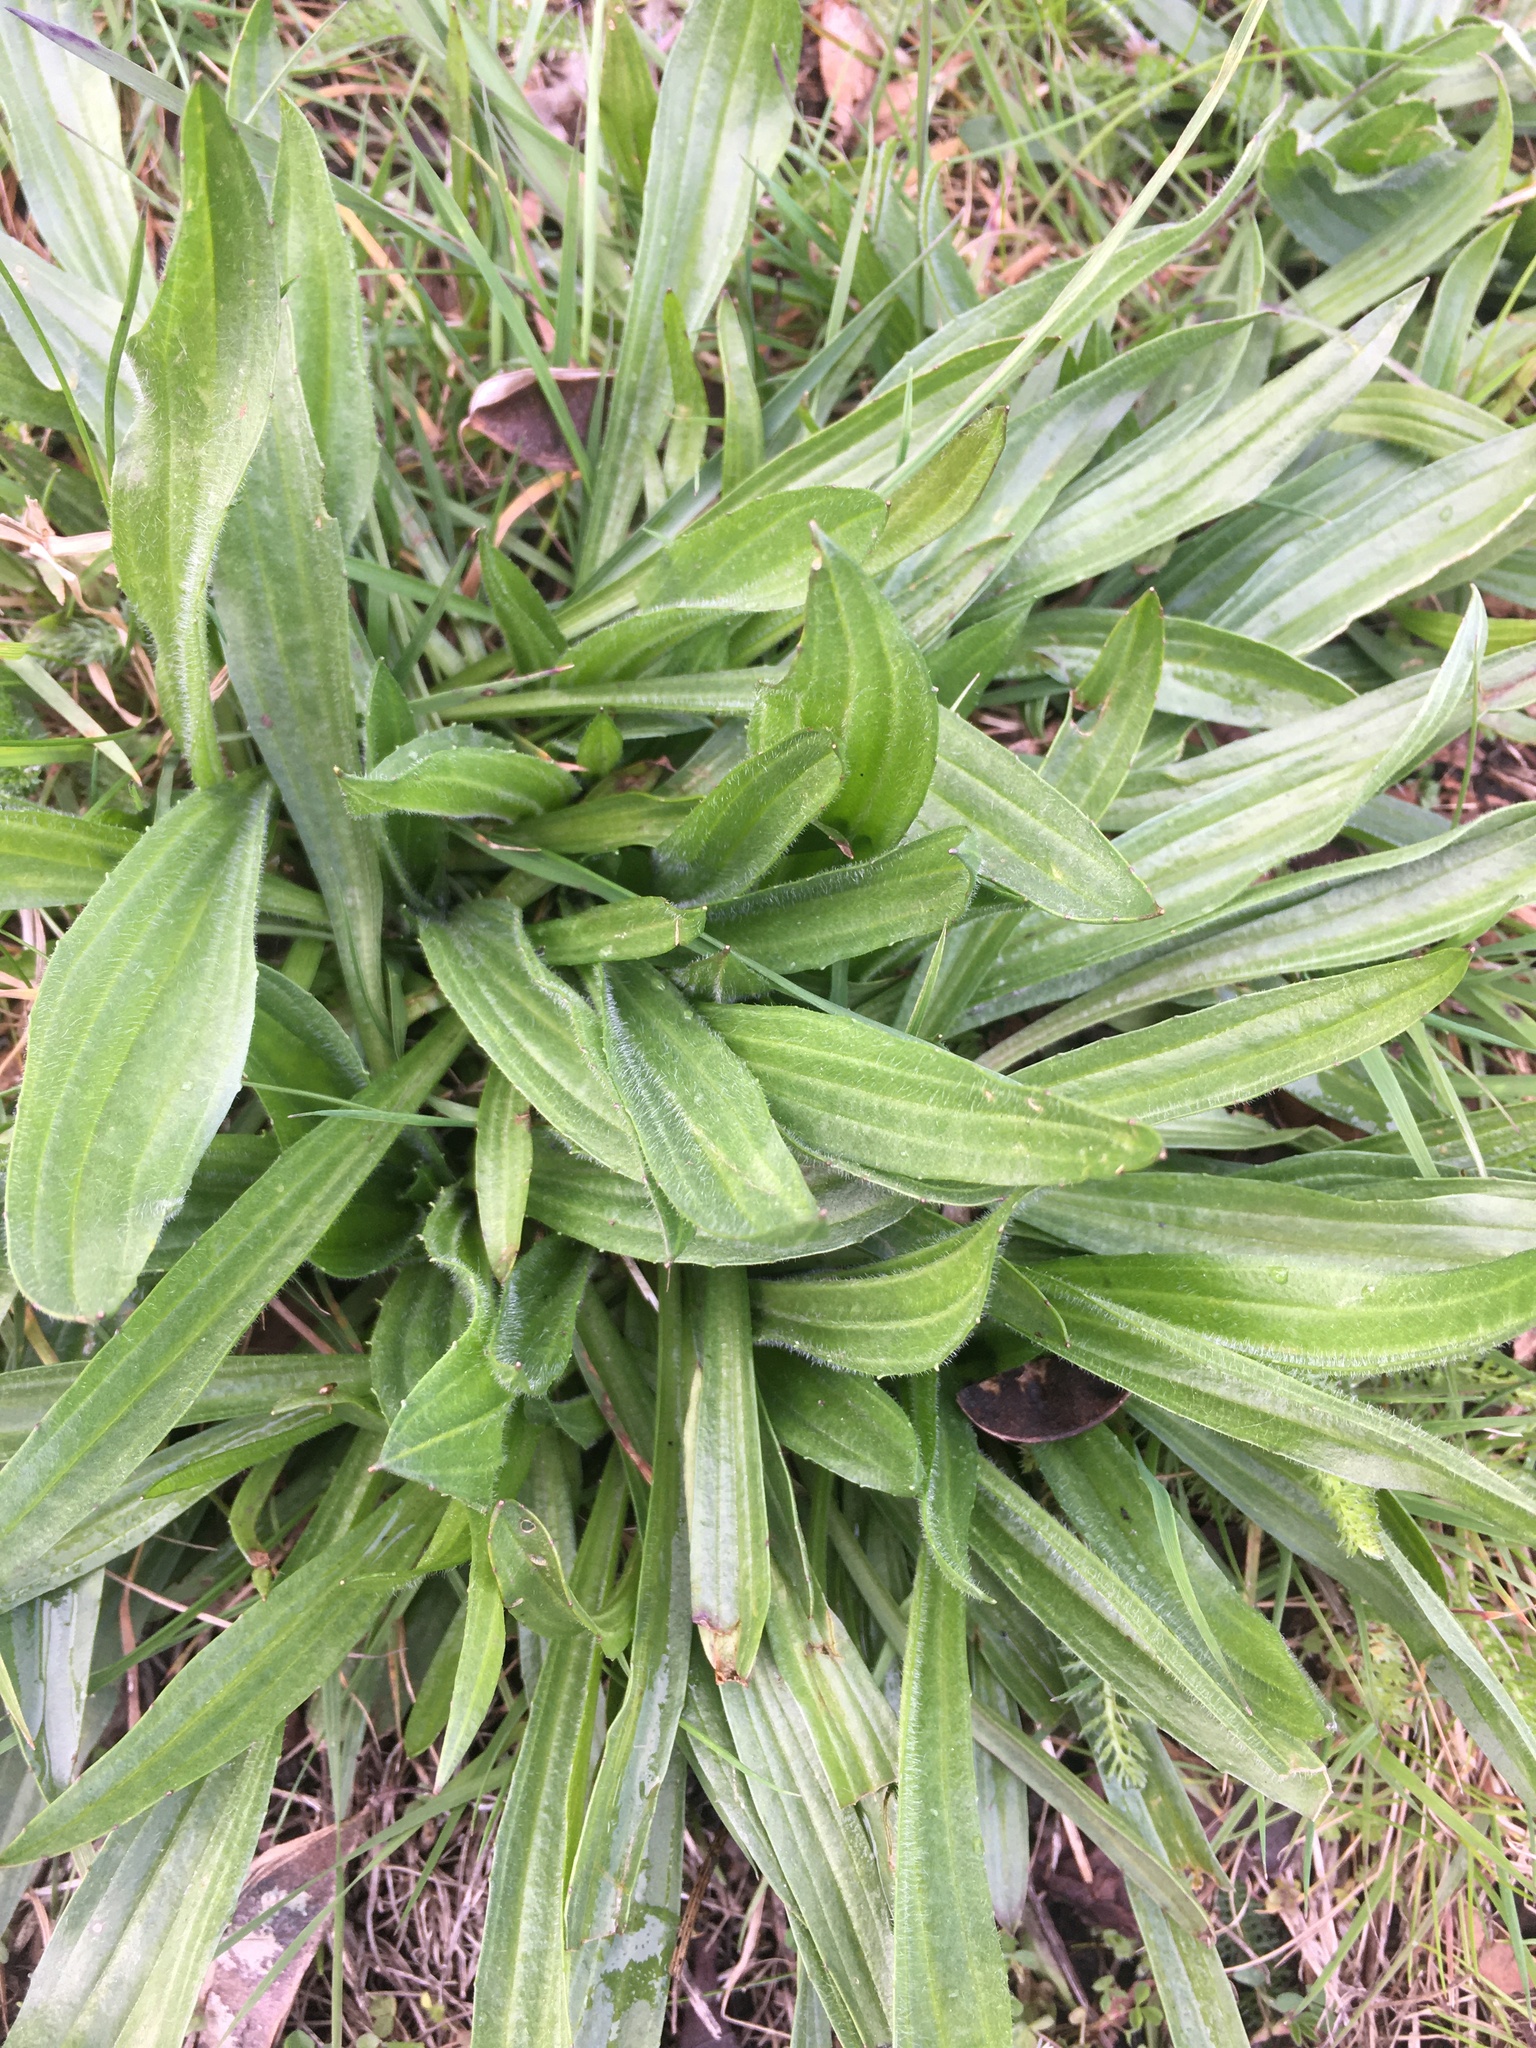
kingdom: Plantae
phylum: Tracheophyta
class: Magnoliopsida
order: Lamiales
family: Plantaginaceae
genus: Plantago
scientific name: Plantago lanceolata
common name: Ribwort plantain
